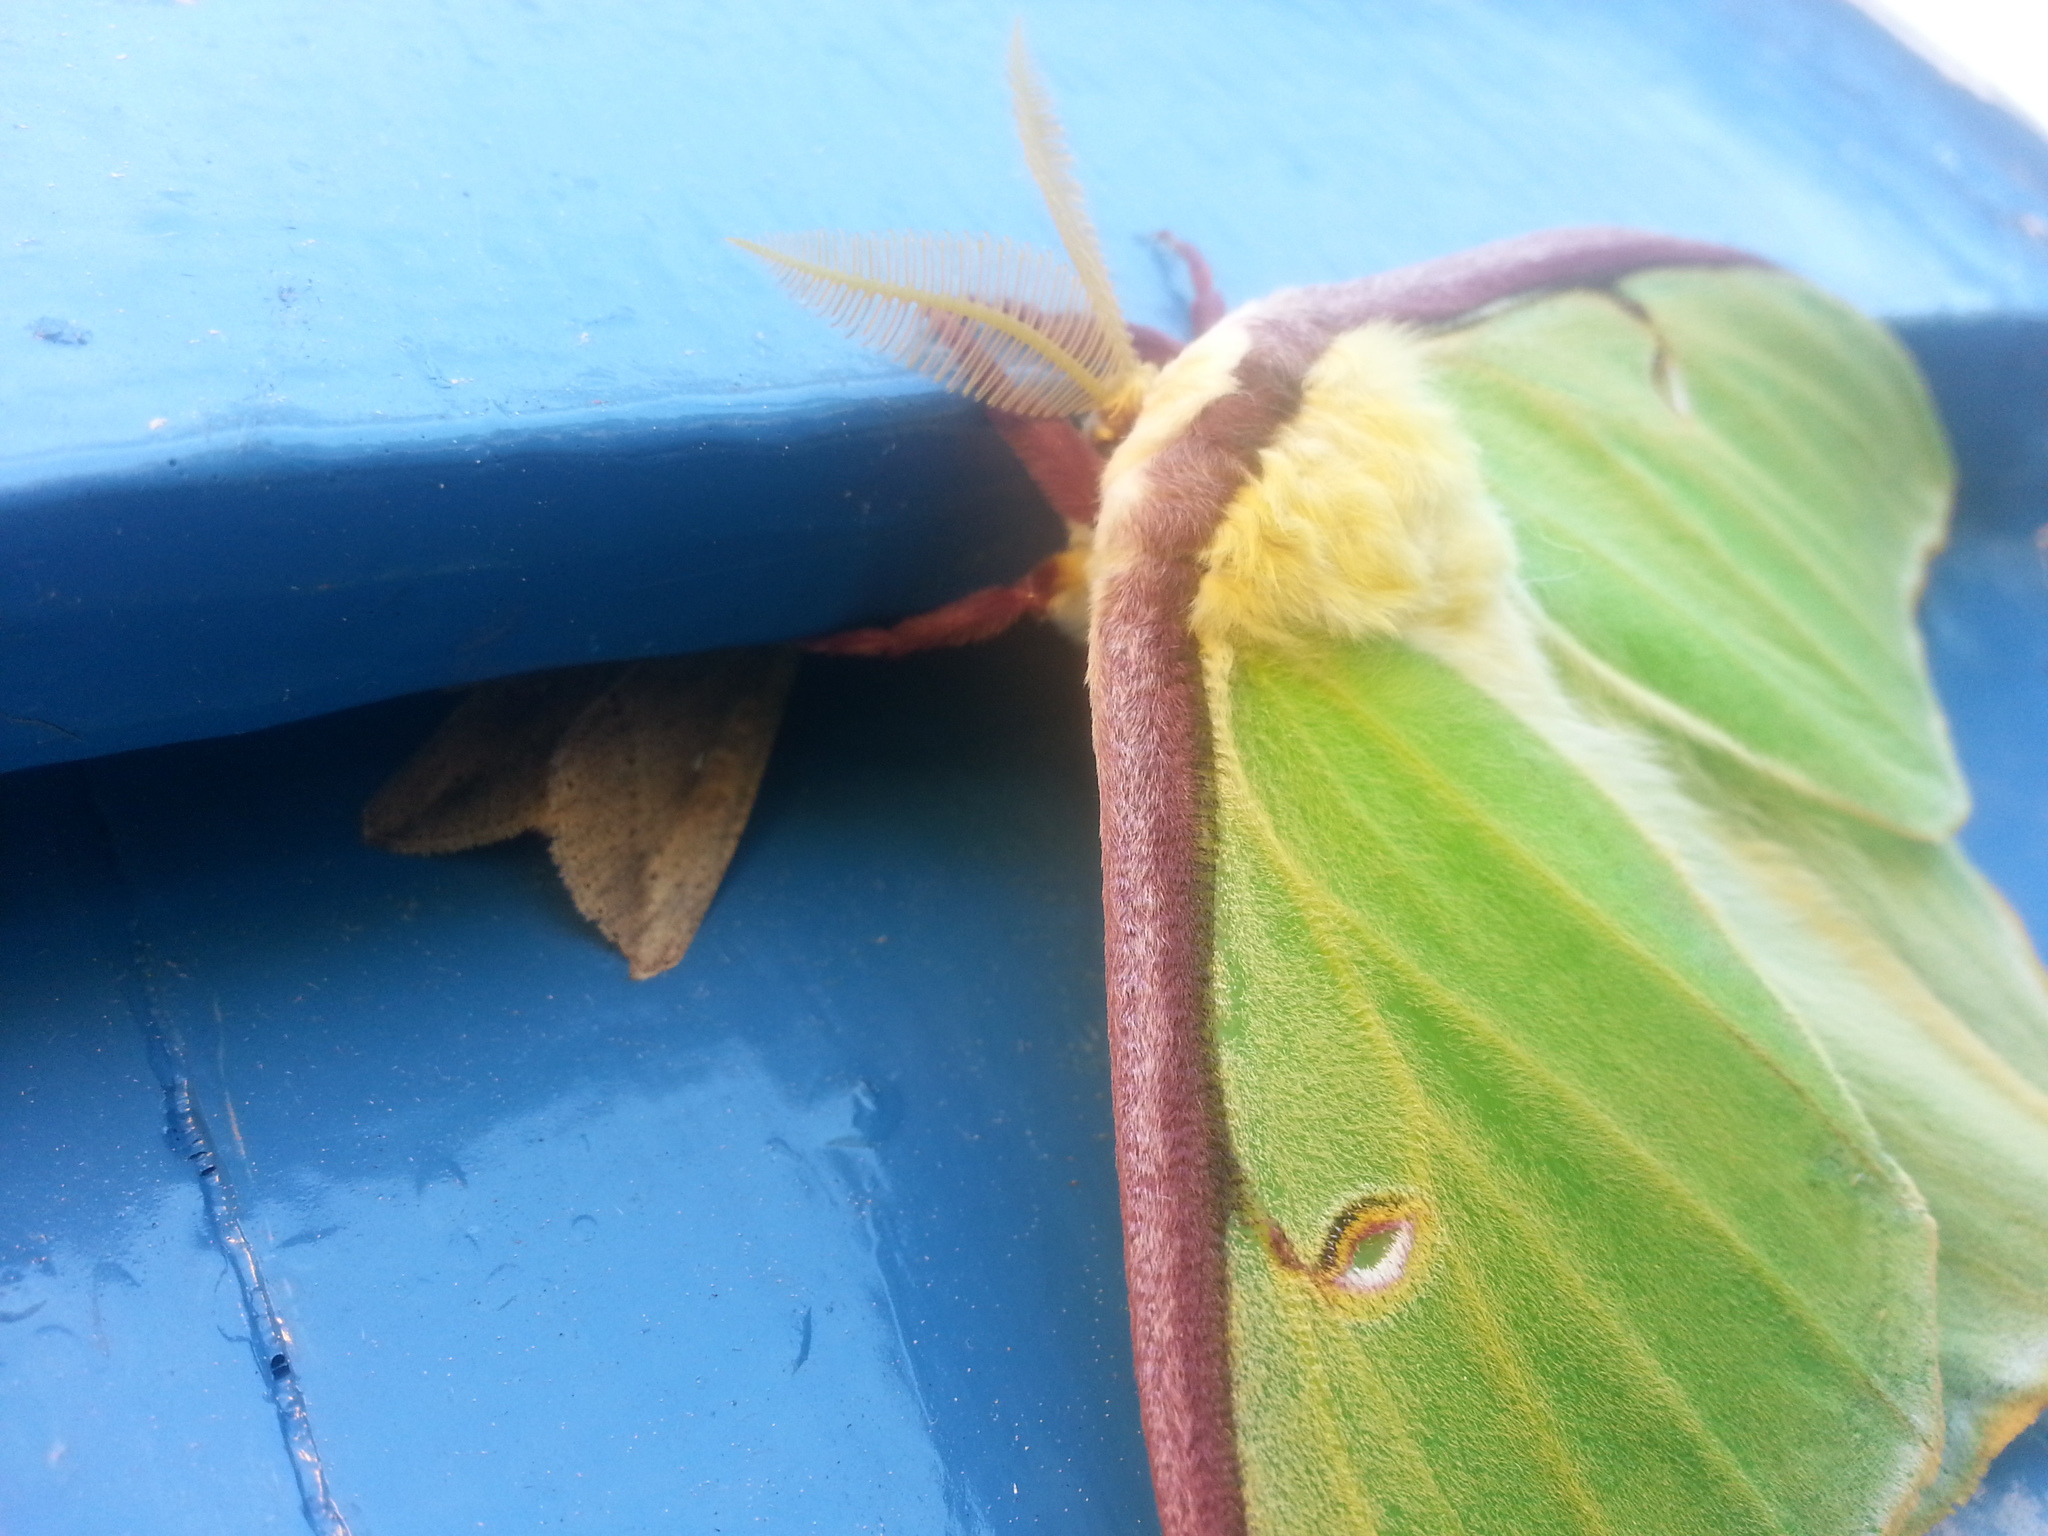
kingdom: Animalia
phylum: Arthropoda
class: Insecta
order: Lepidoptera
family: Saturniidae
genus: Actias
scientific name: Actias luna
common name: Luna moth
